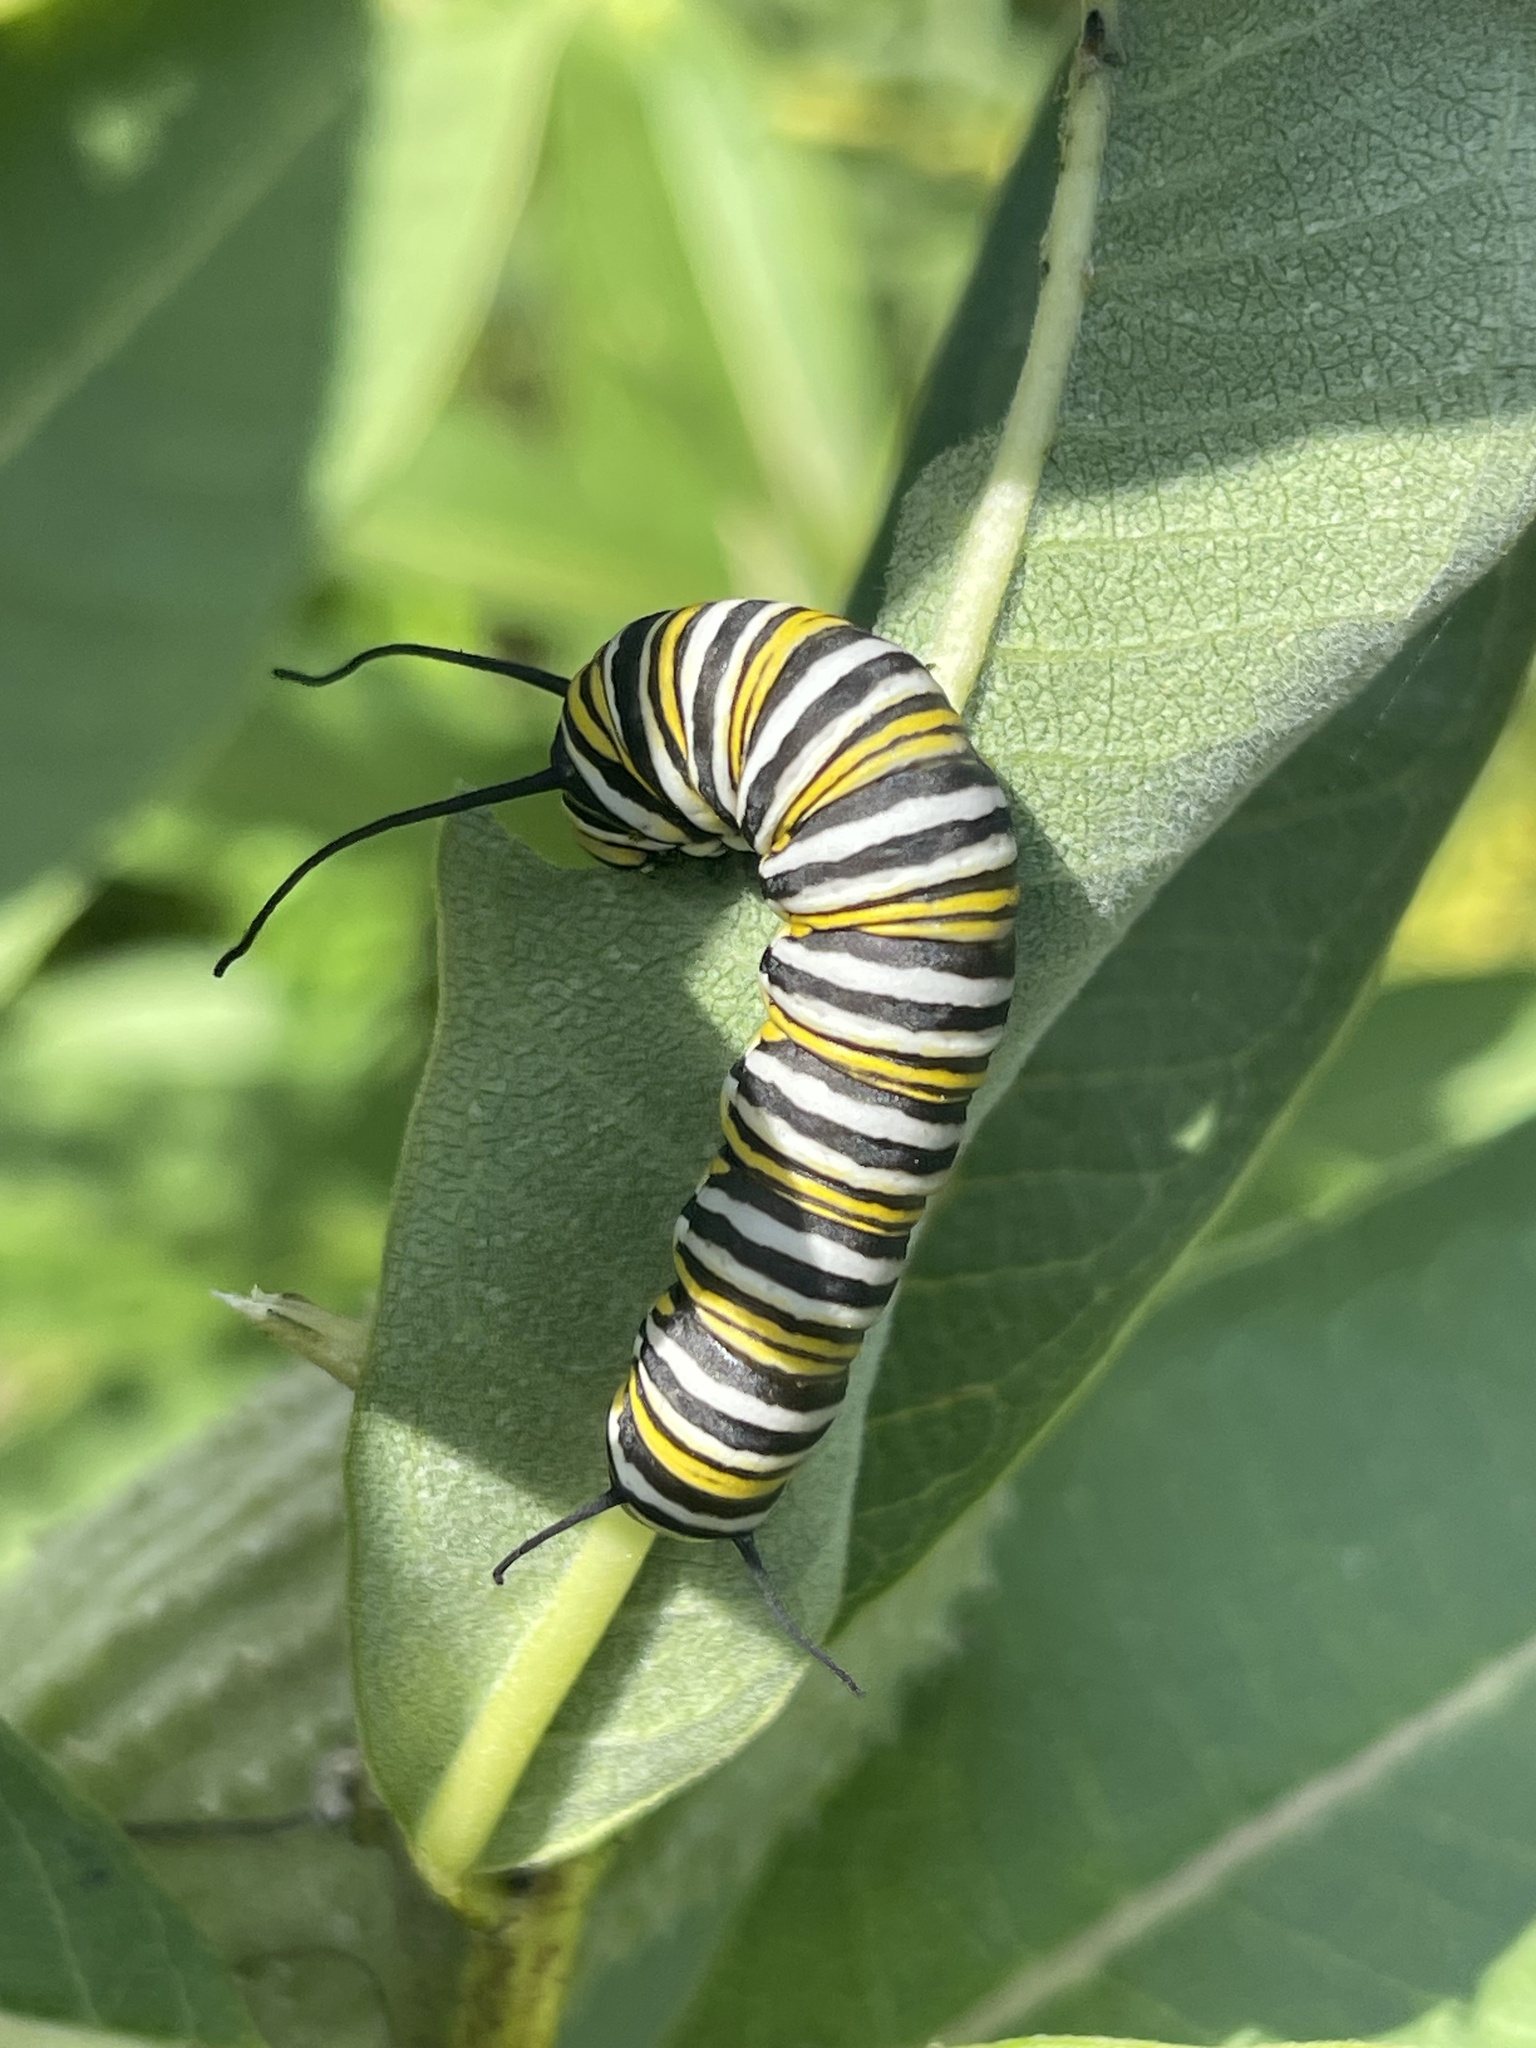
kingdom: Animalia
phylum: Arthropoda
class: Insecta
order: Lepidoptera
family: Nymphalidae
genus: Danaus
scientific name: Danaus plexippus
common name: Monarch
